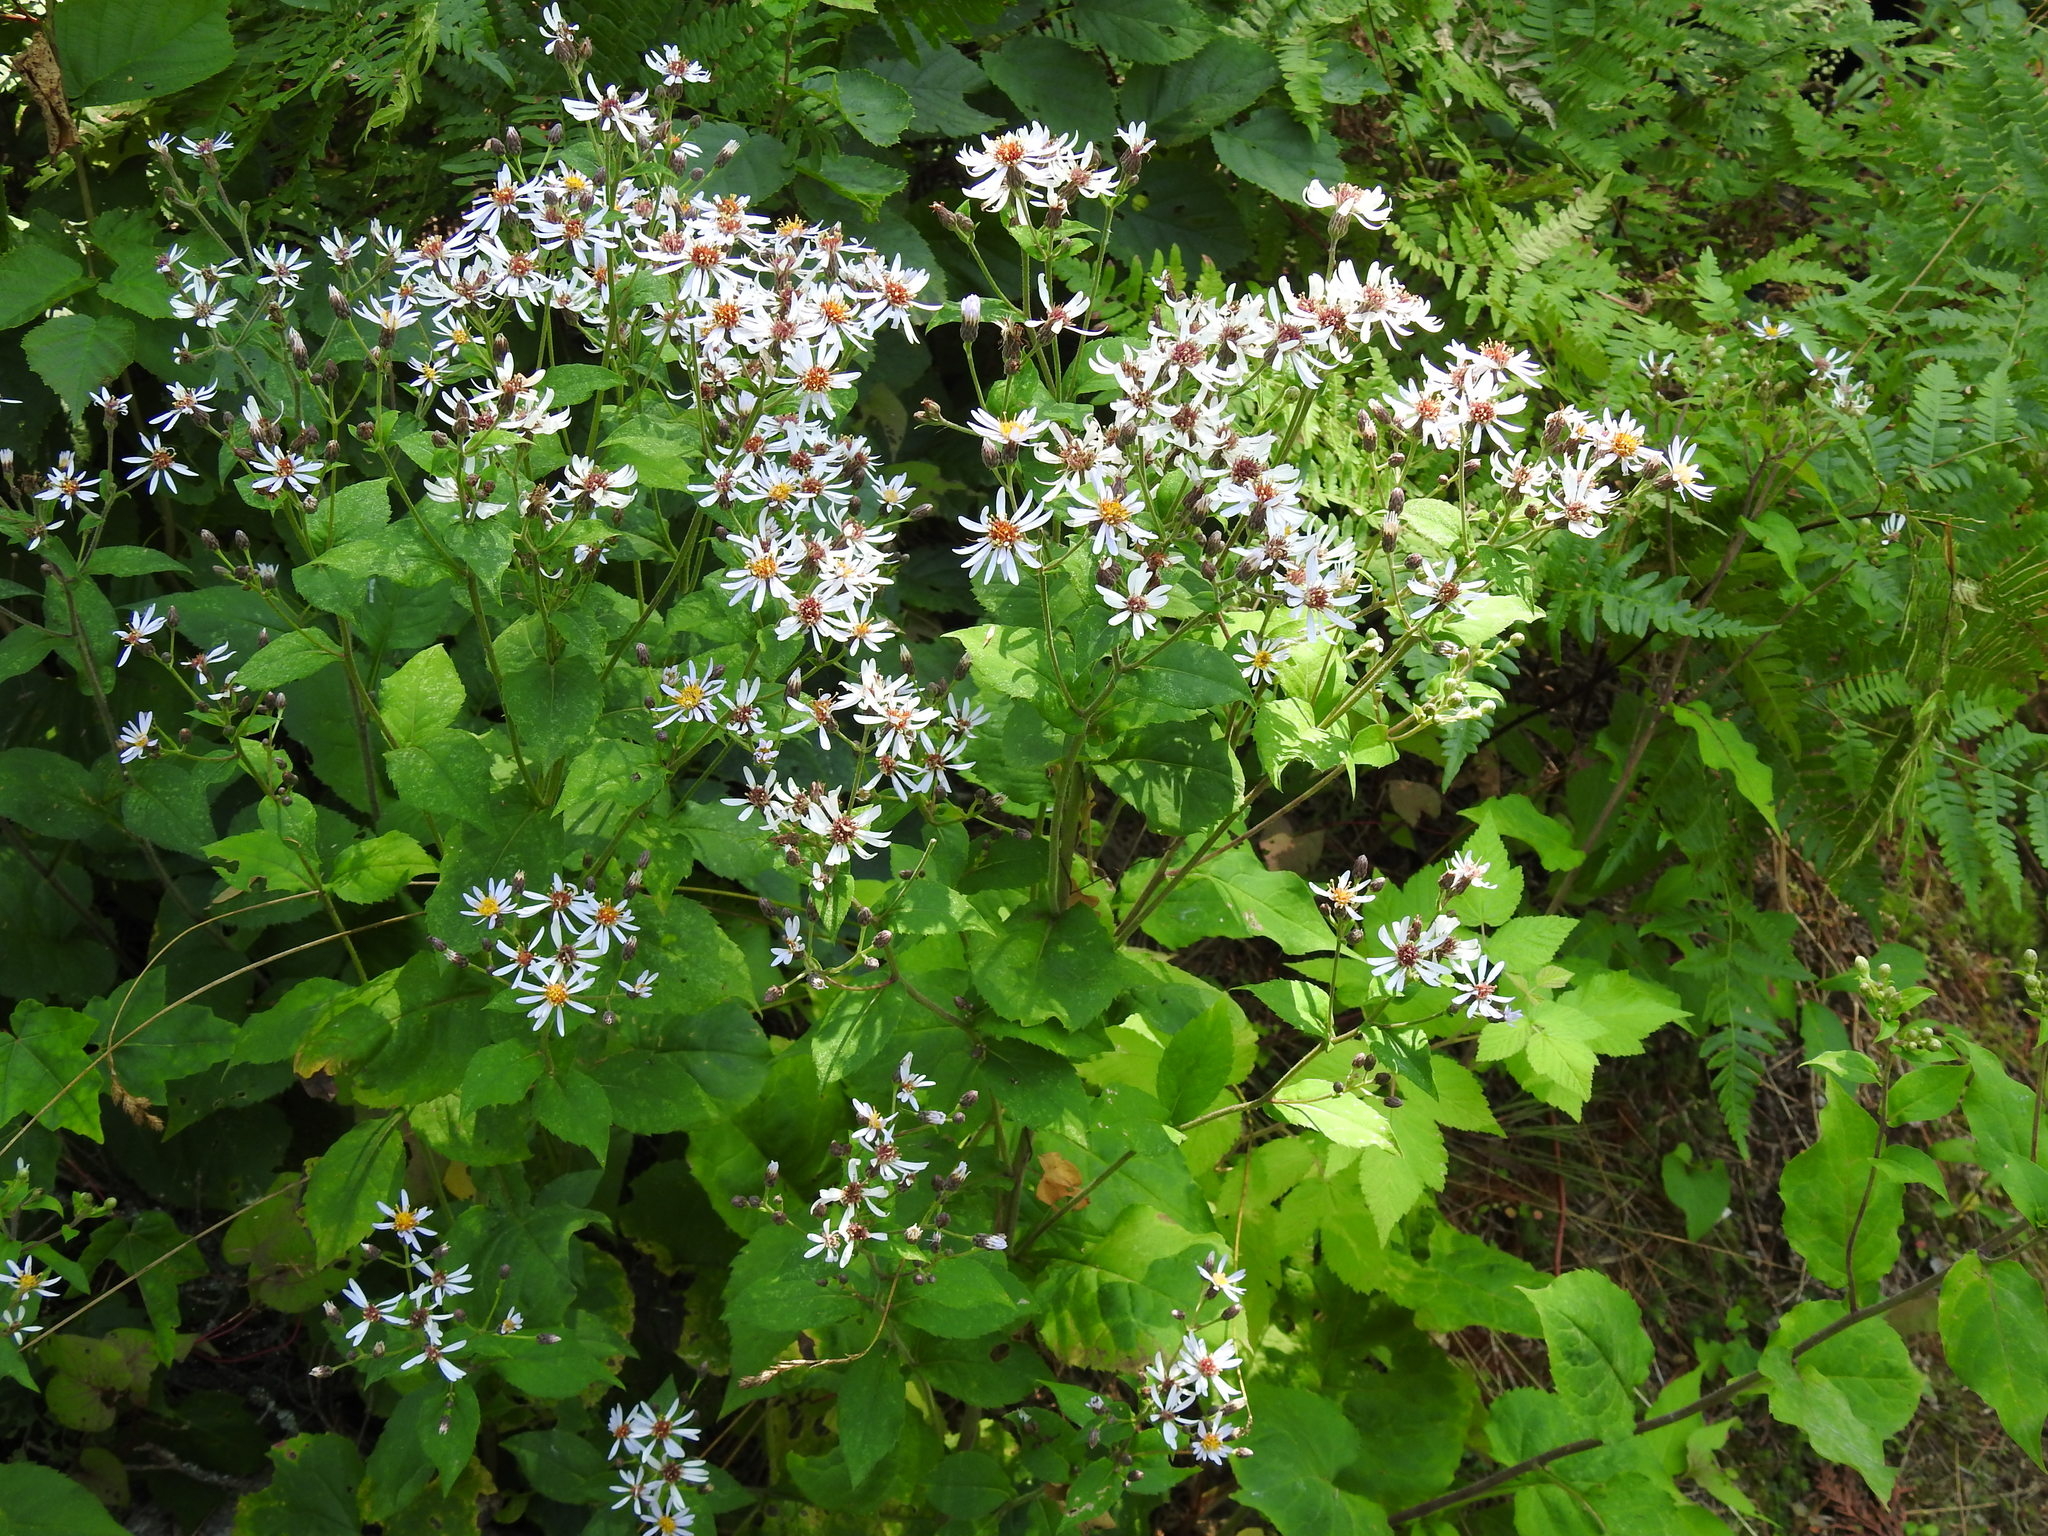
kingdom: Plantae
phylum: Tracheophyta
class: Magnoliopsida
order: Asterales
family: Asteraceae
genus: Eurybia
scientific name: Eurybia macrophylla
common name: Big-leaved aster
